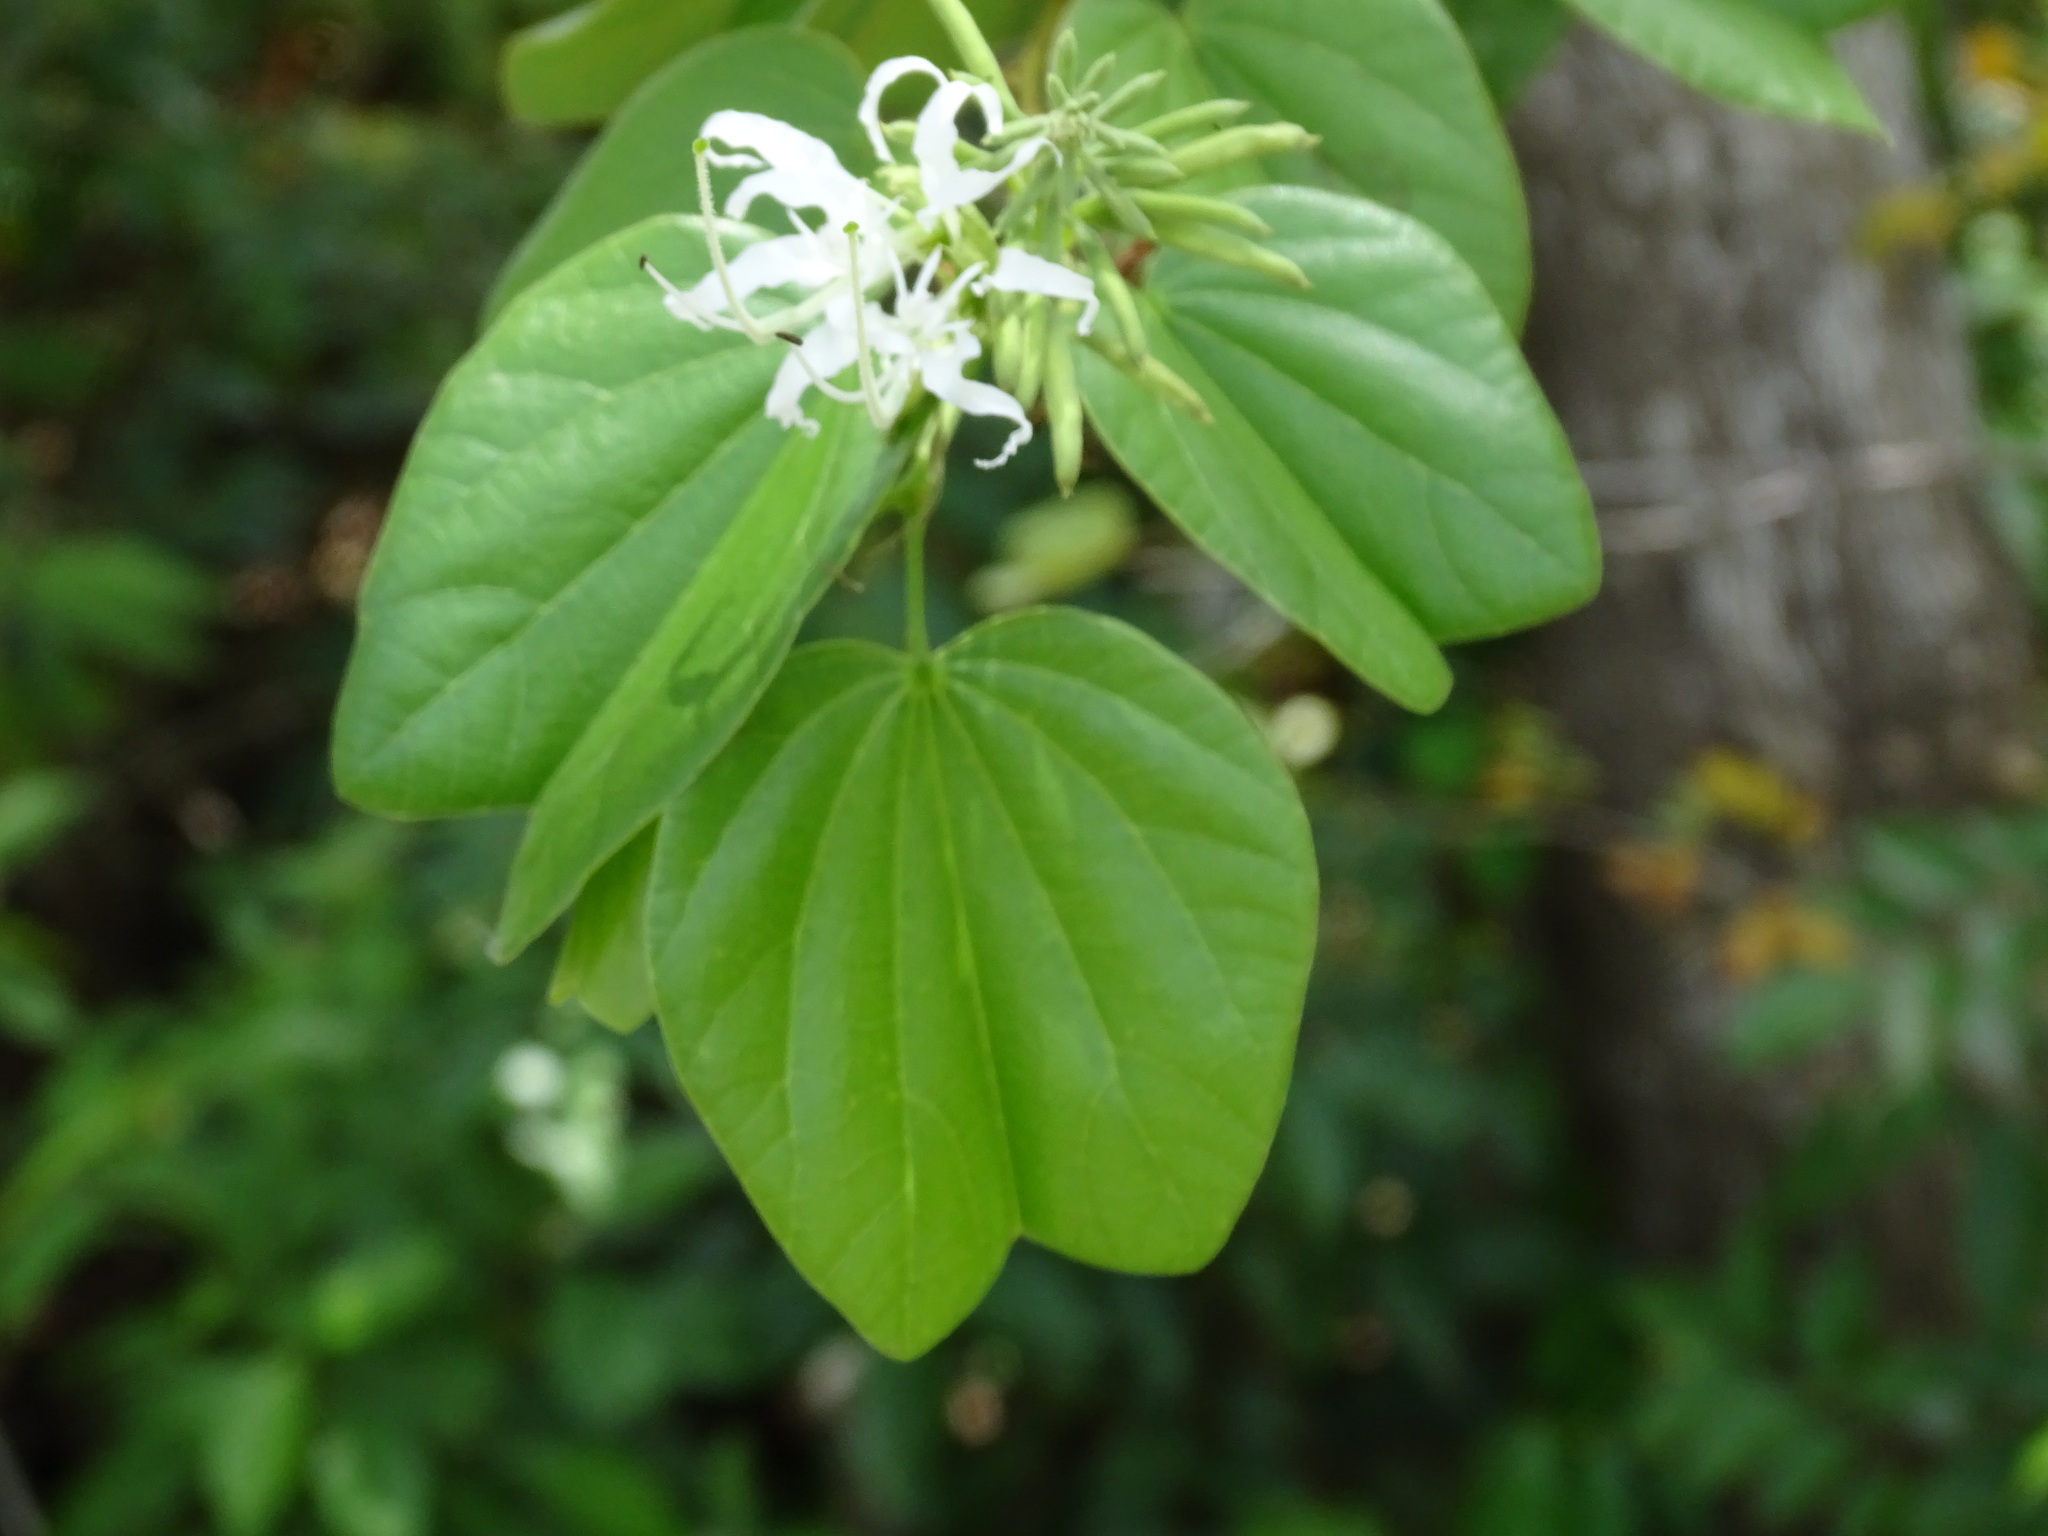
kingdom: Plantae
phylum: Tracheophyta
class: Magnoliopsida
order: Fabales
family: Fabaceae
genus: Bauhinia
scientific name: Bauhinia divaricata
